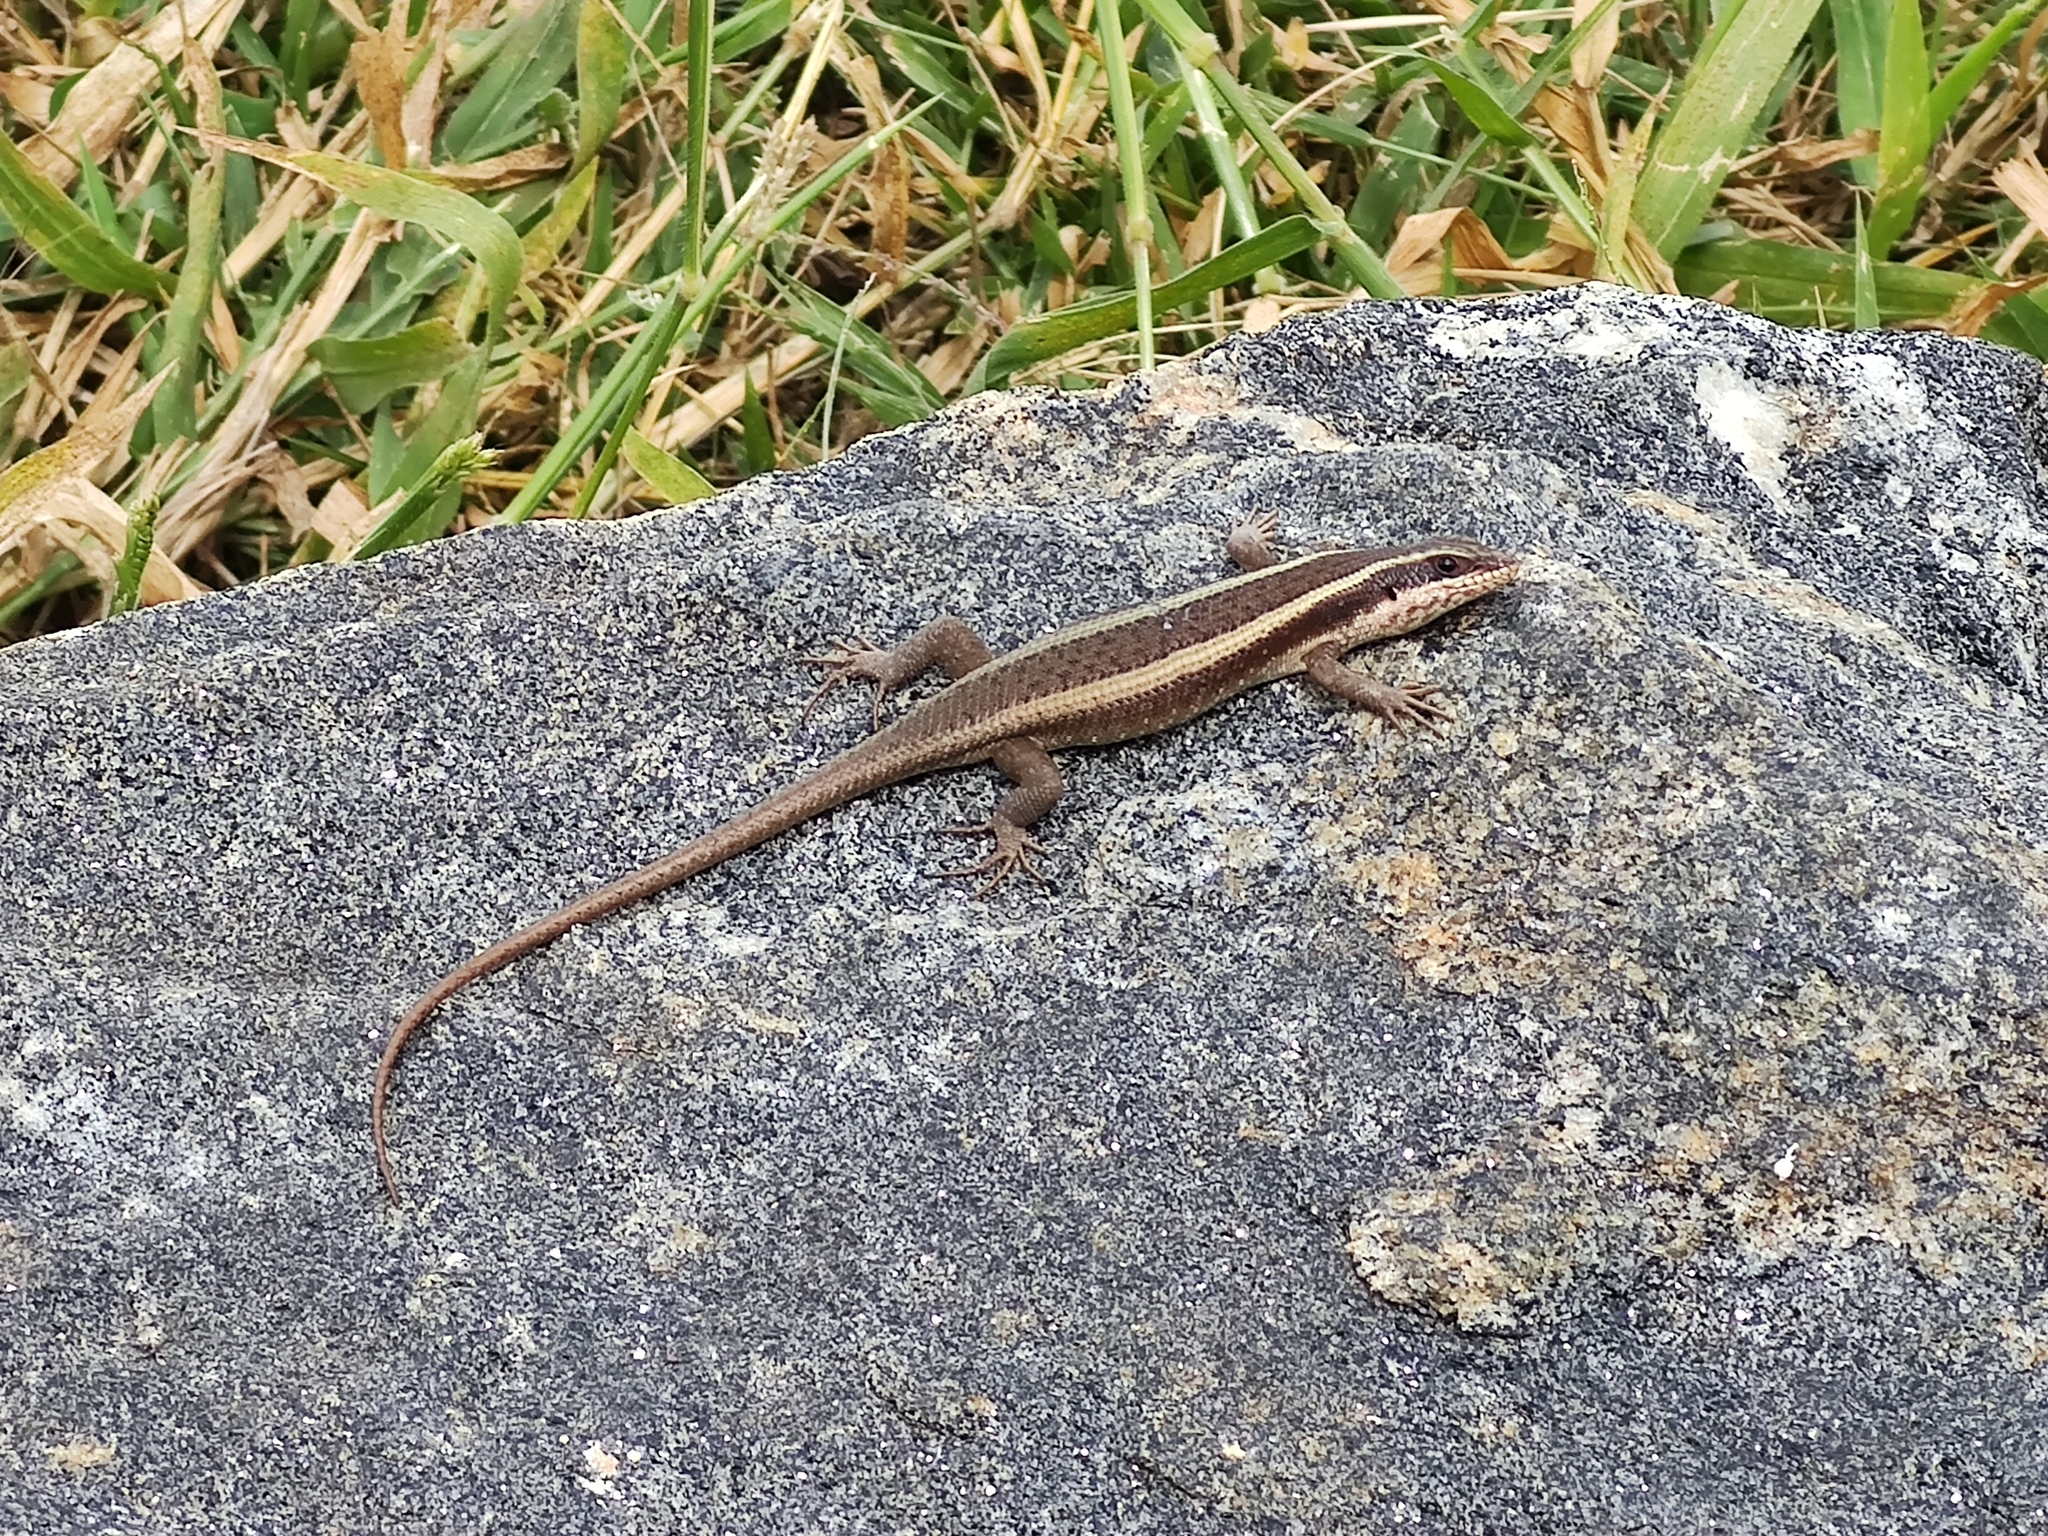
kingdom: Animalia
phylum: Chordata
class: Squamata
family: Scincidae
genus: Trachylepis
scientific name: Trachylepis striata
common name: African striped mabuya
